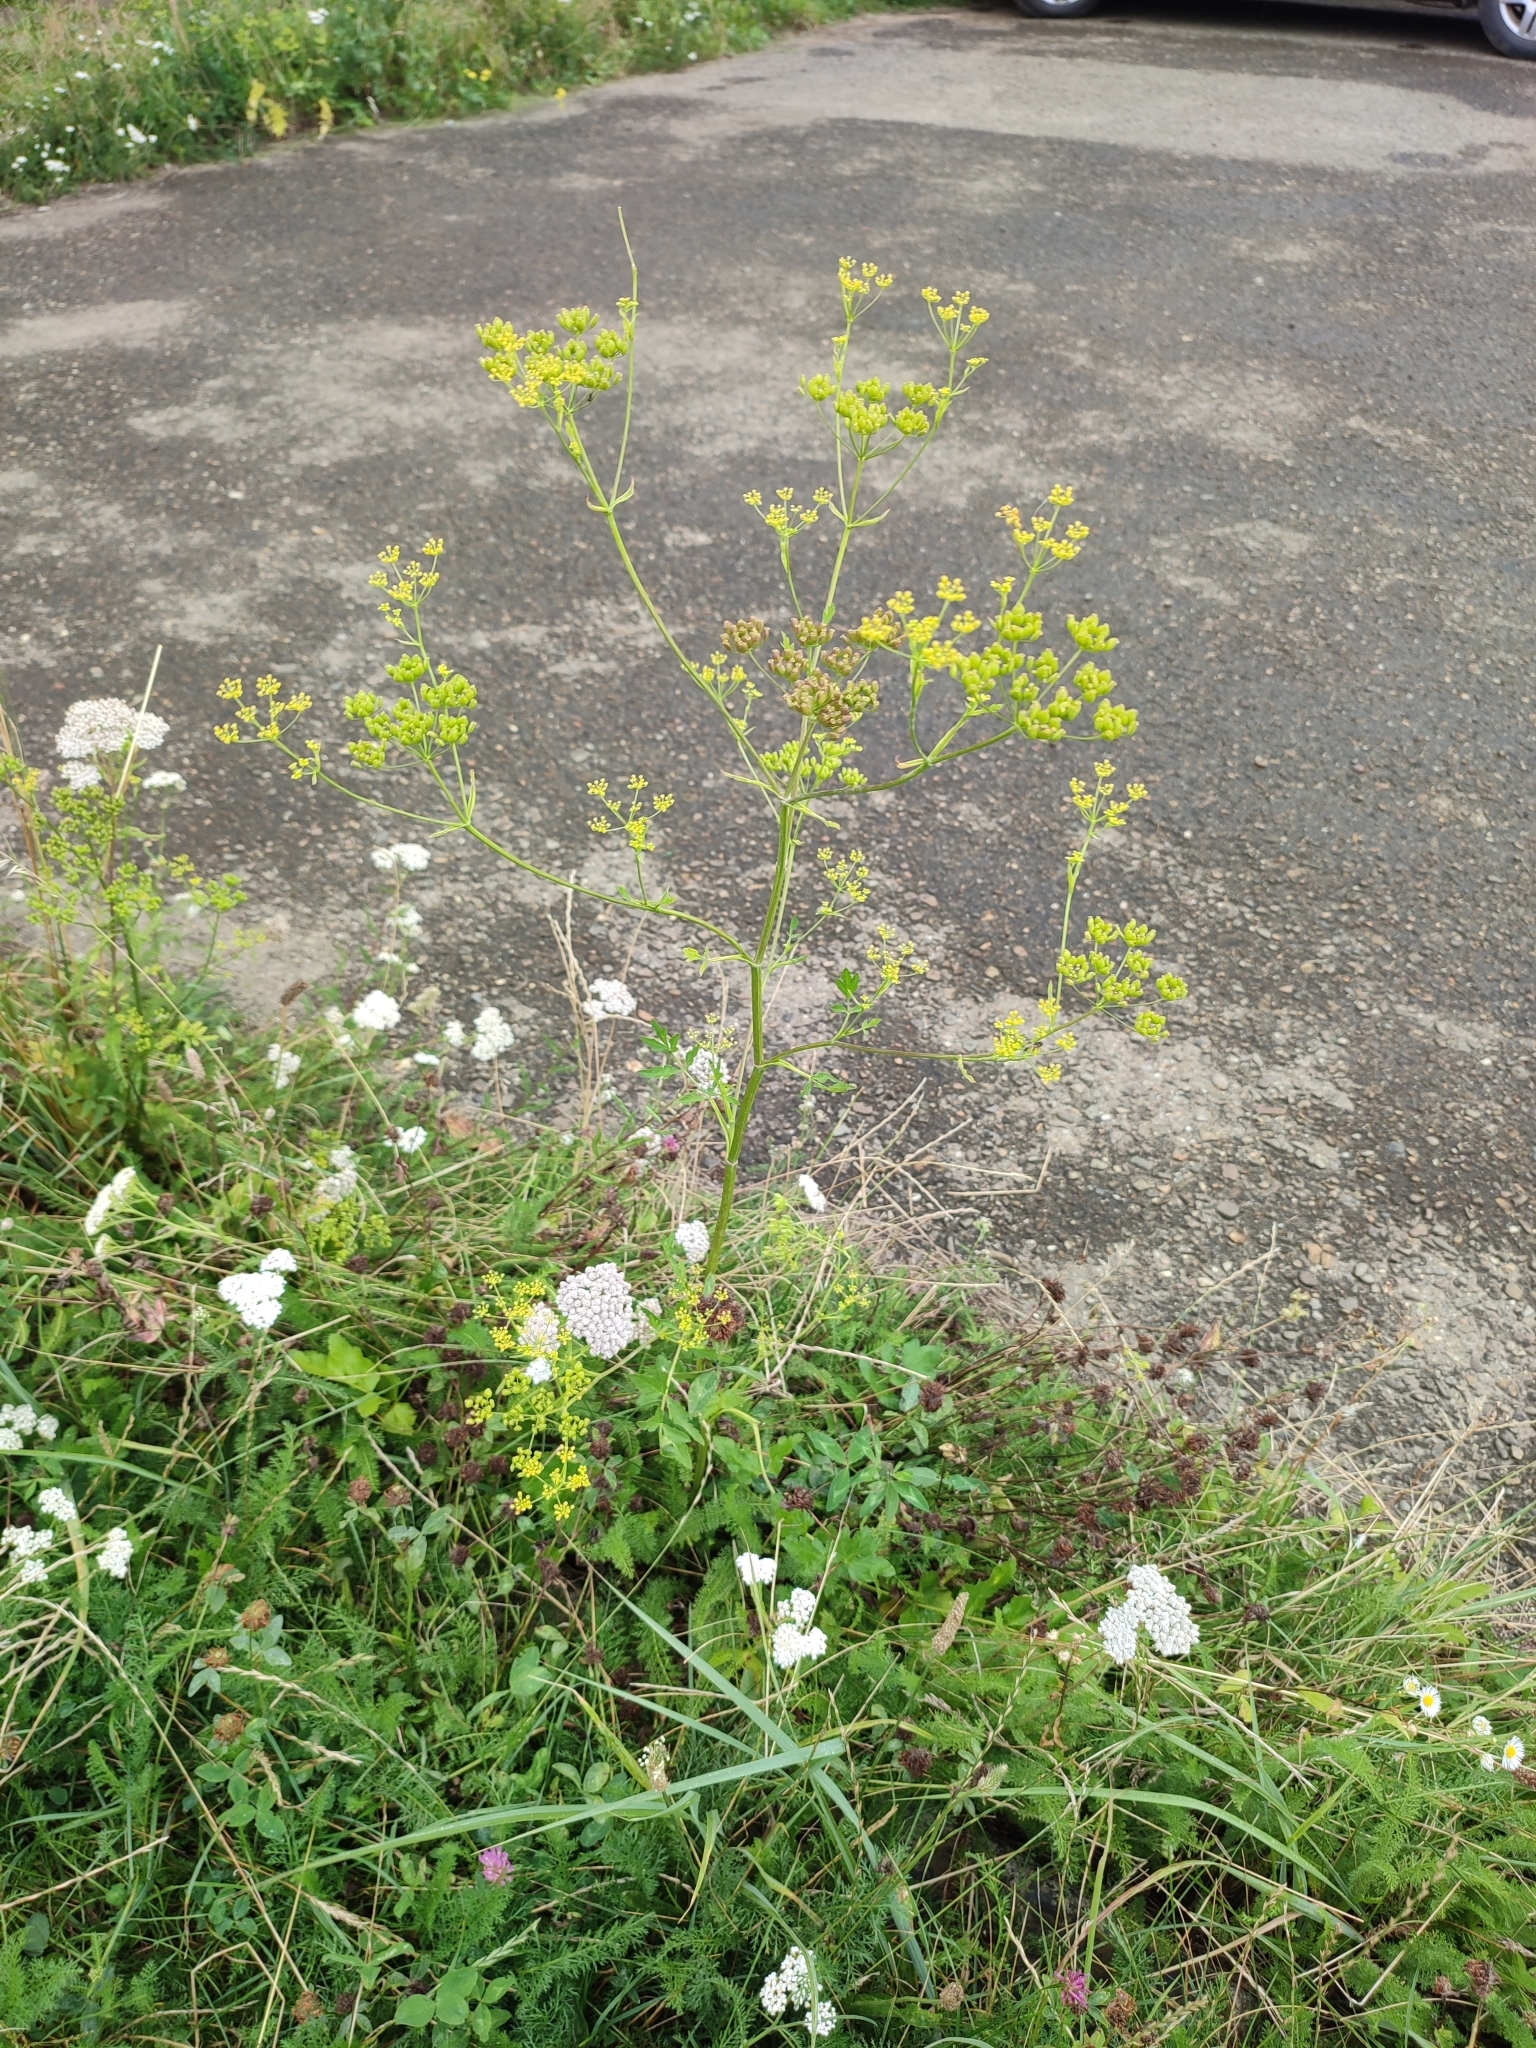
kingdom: Plantae
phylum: Tracheophyta
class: Magnoliopsida
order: Apiales
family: Apiaceae
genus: Pastinaca
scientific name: Pastinaca sativa
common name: Wild parsnip
